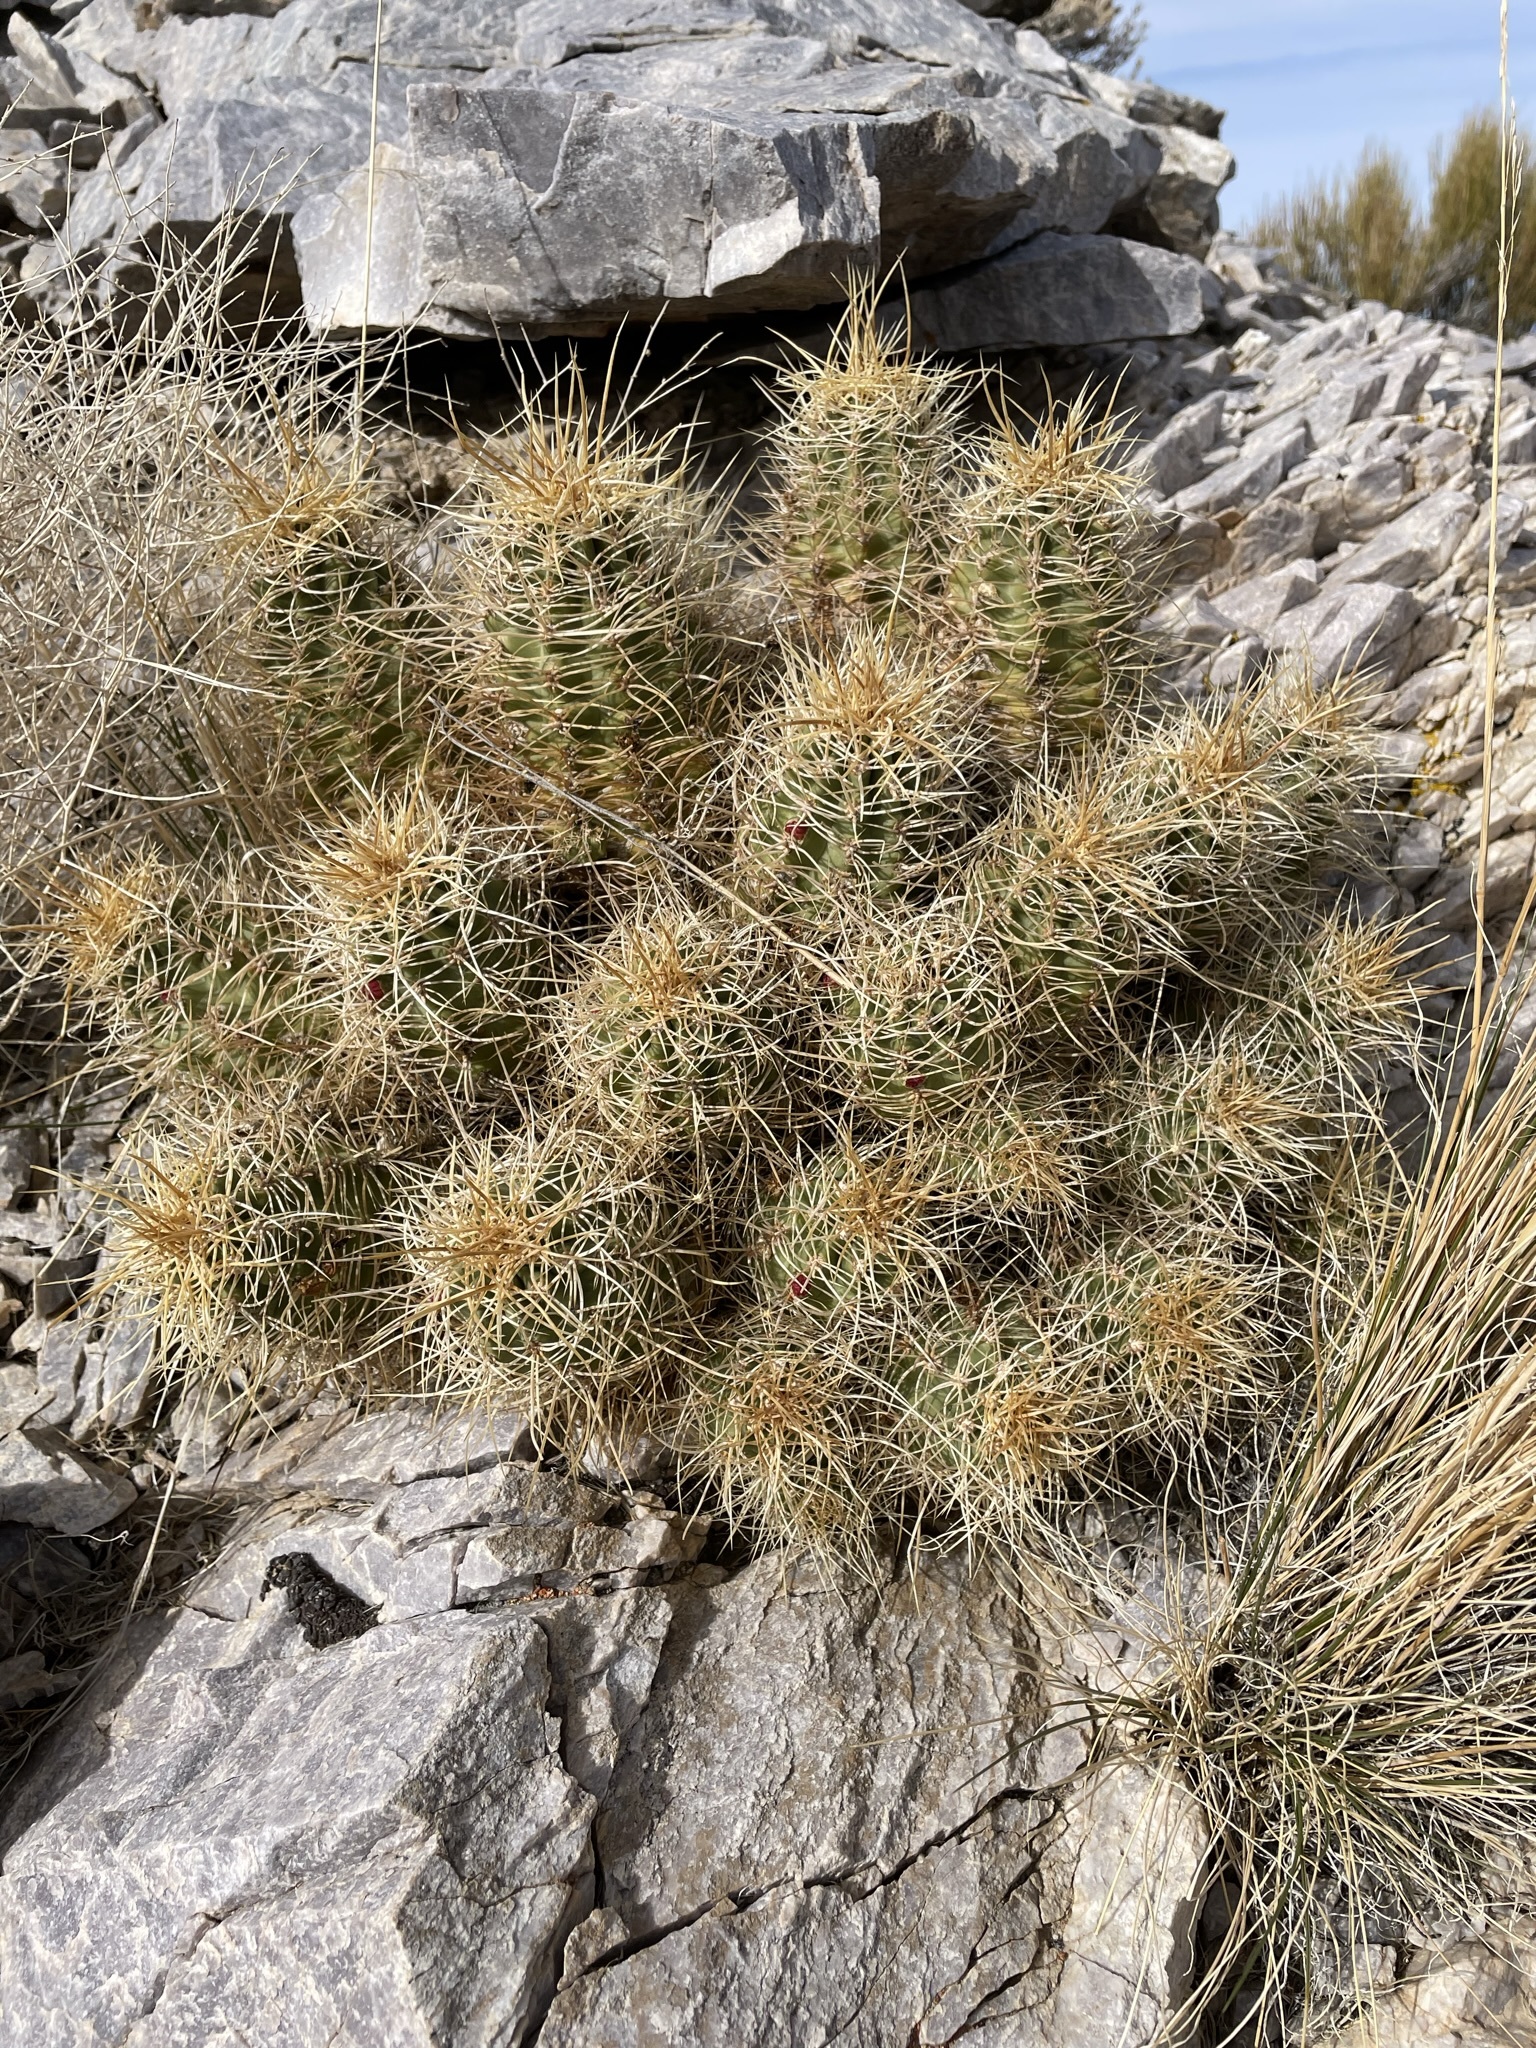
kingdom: Plantae
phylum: Tracheophyta
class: Magnoliopsida
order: Caryophyllales
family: Cactaceae
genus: Echinocereus
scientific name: Echinocereus triglochidiatus
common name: Claretcup hedgehog
